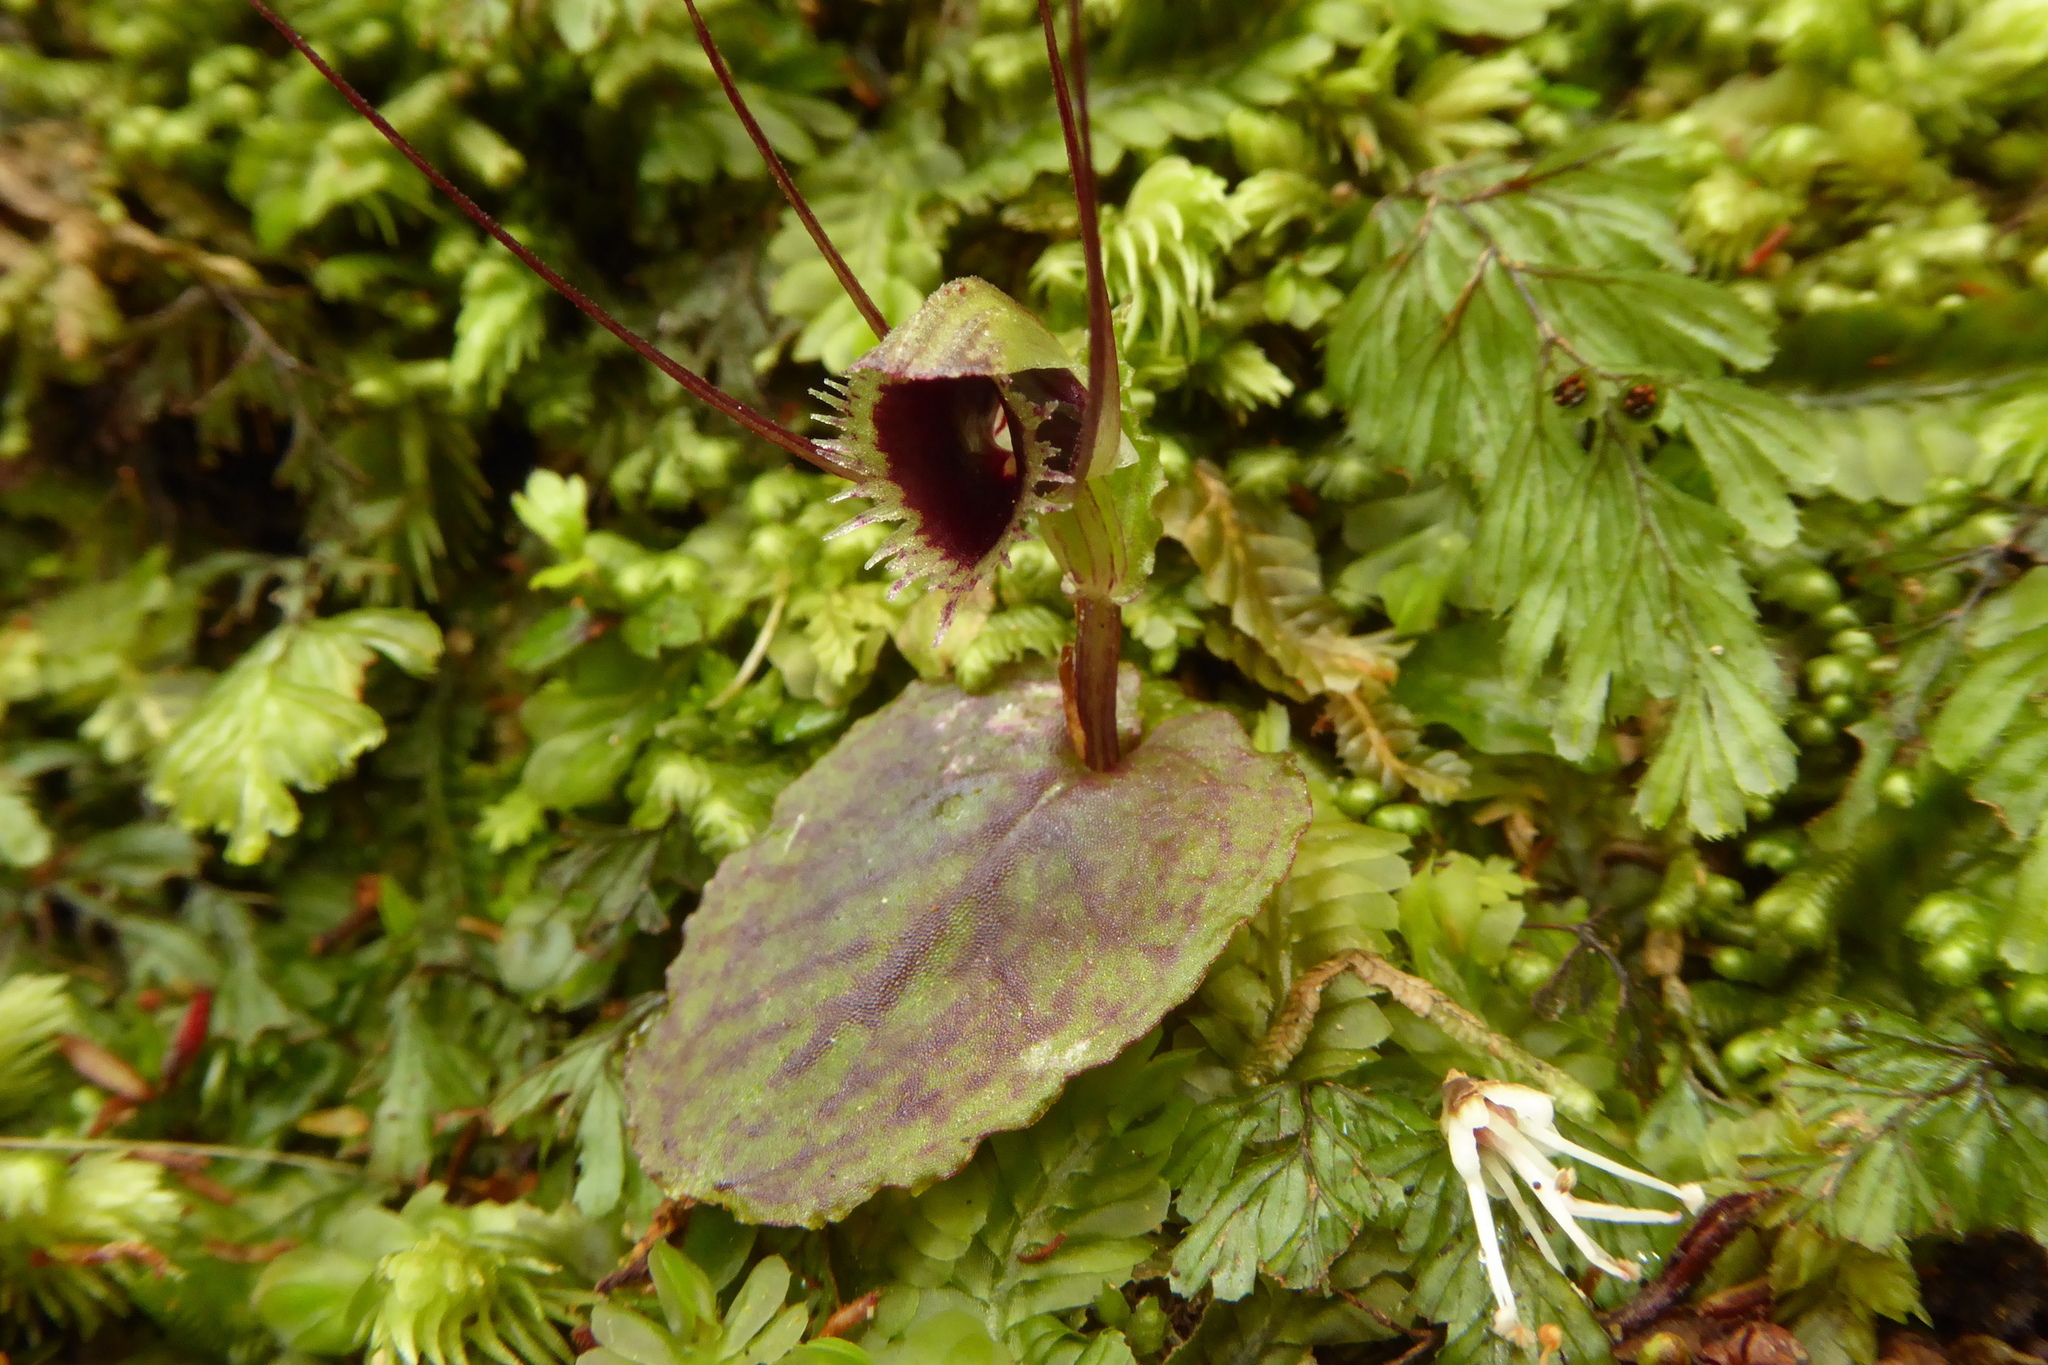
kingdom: Plantae
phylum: Tracheophyta
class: Liliopsida
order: Asparagales
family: Orchidaceae
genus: Corybas
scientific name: Corybas oblongus
